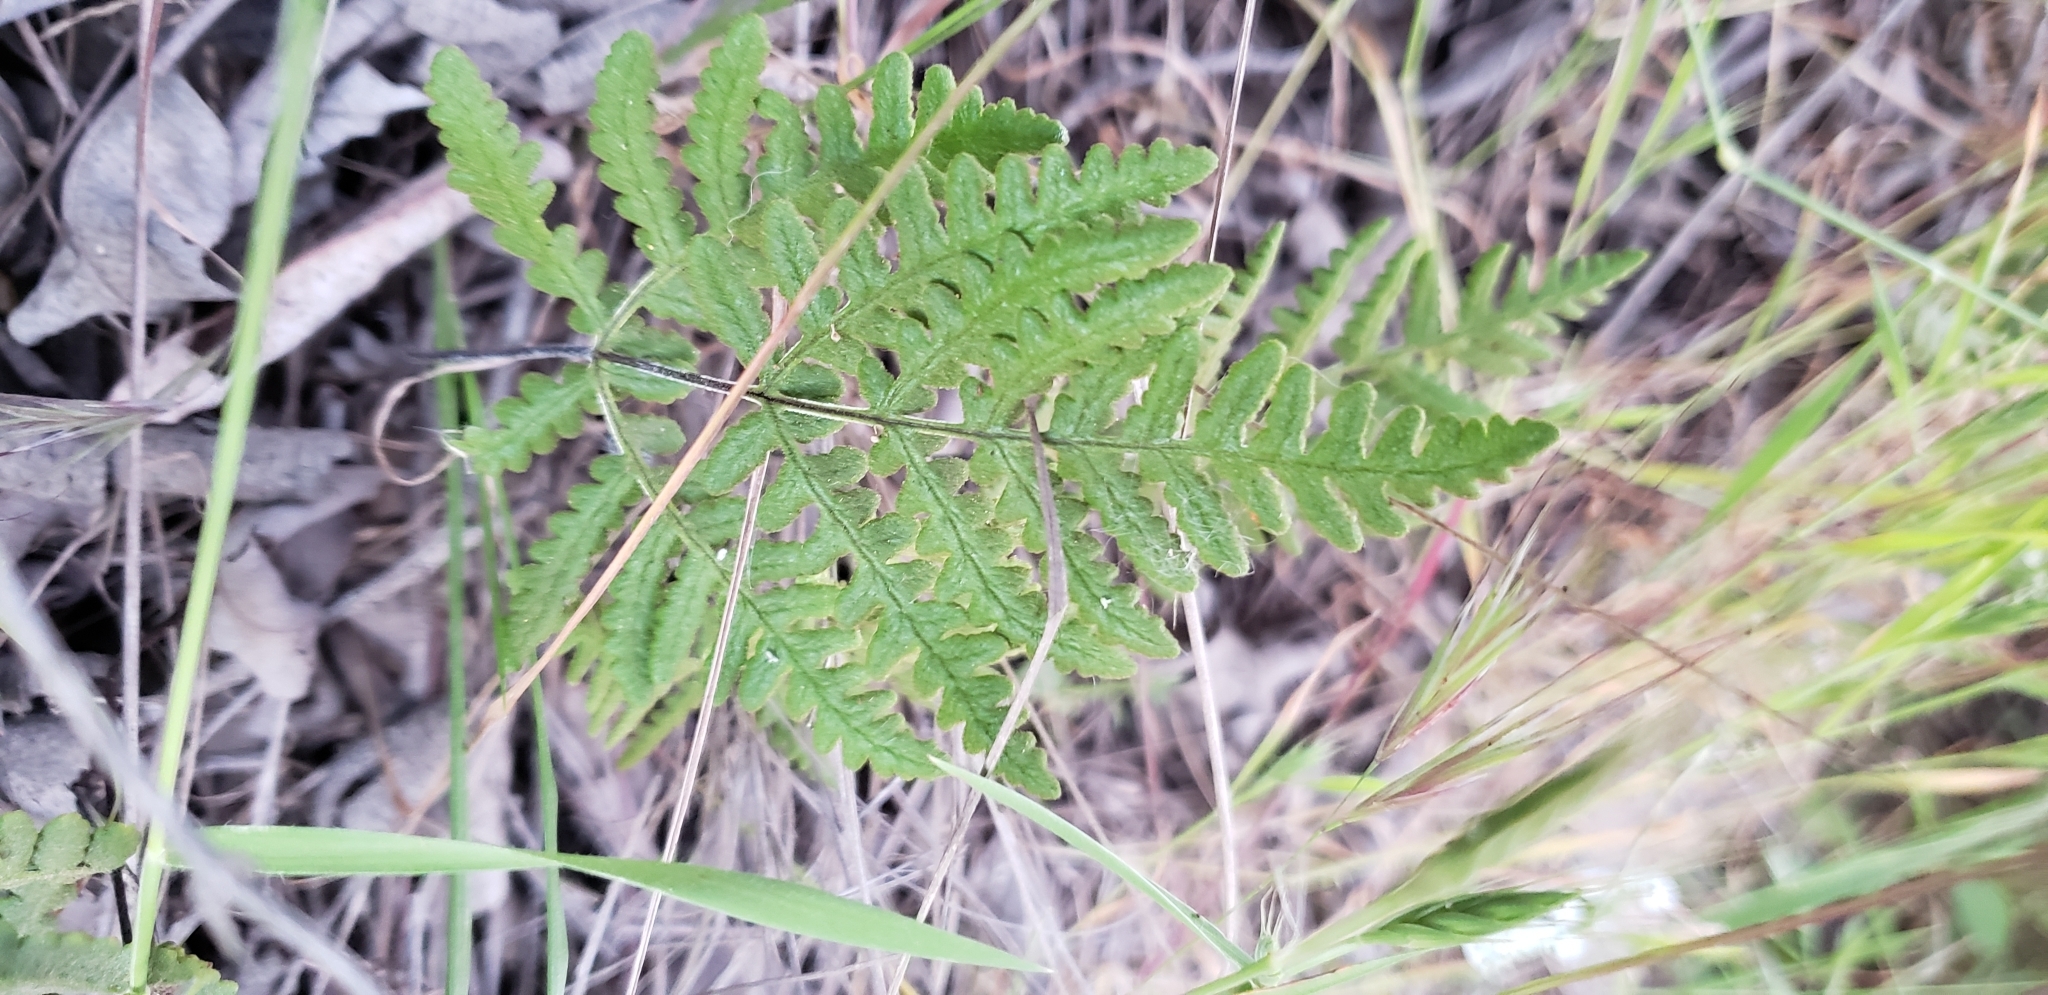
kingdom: Plantae
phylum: Tracheophyta
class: Polypodiopsida
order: Polypodiales
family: Pteridaceae
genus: Pentagramma
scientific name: Pentagramma glanduloviscida
